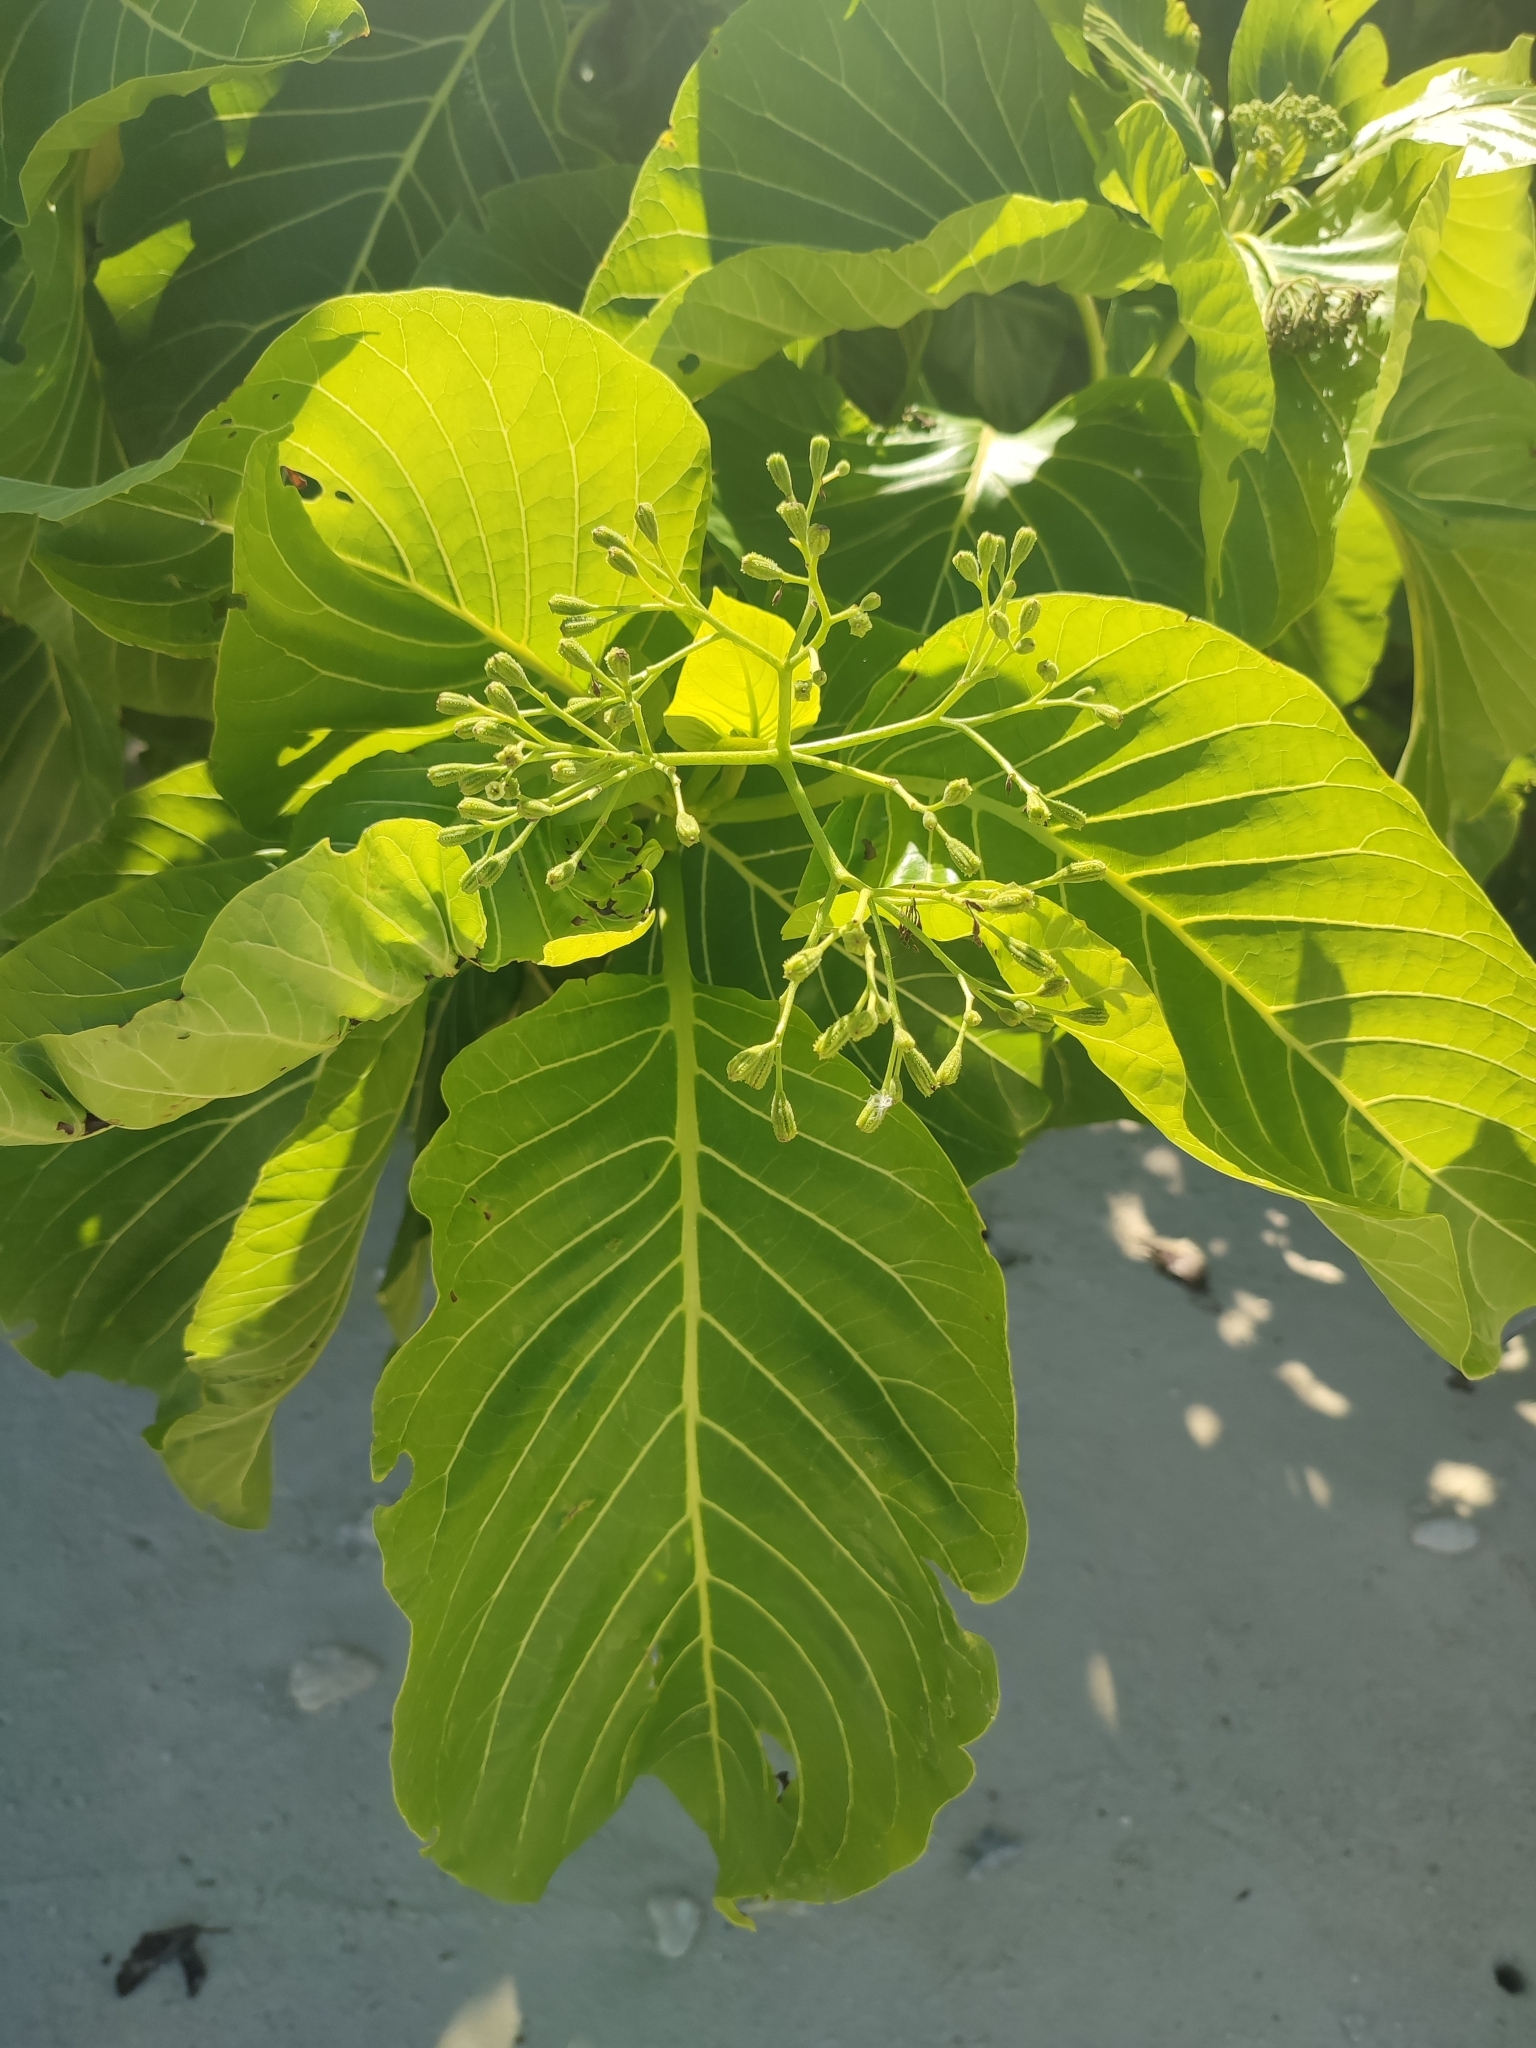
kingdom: Plantae
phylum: Tracheophyta
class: Magnoliopsida
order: Caryophyllales
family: Nyctaginaceae
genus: Ceodes
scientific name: Ceodes
